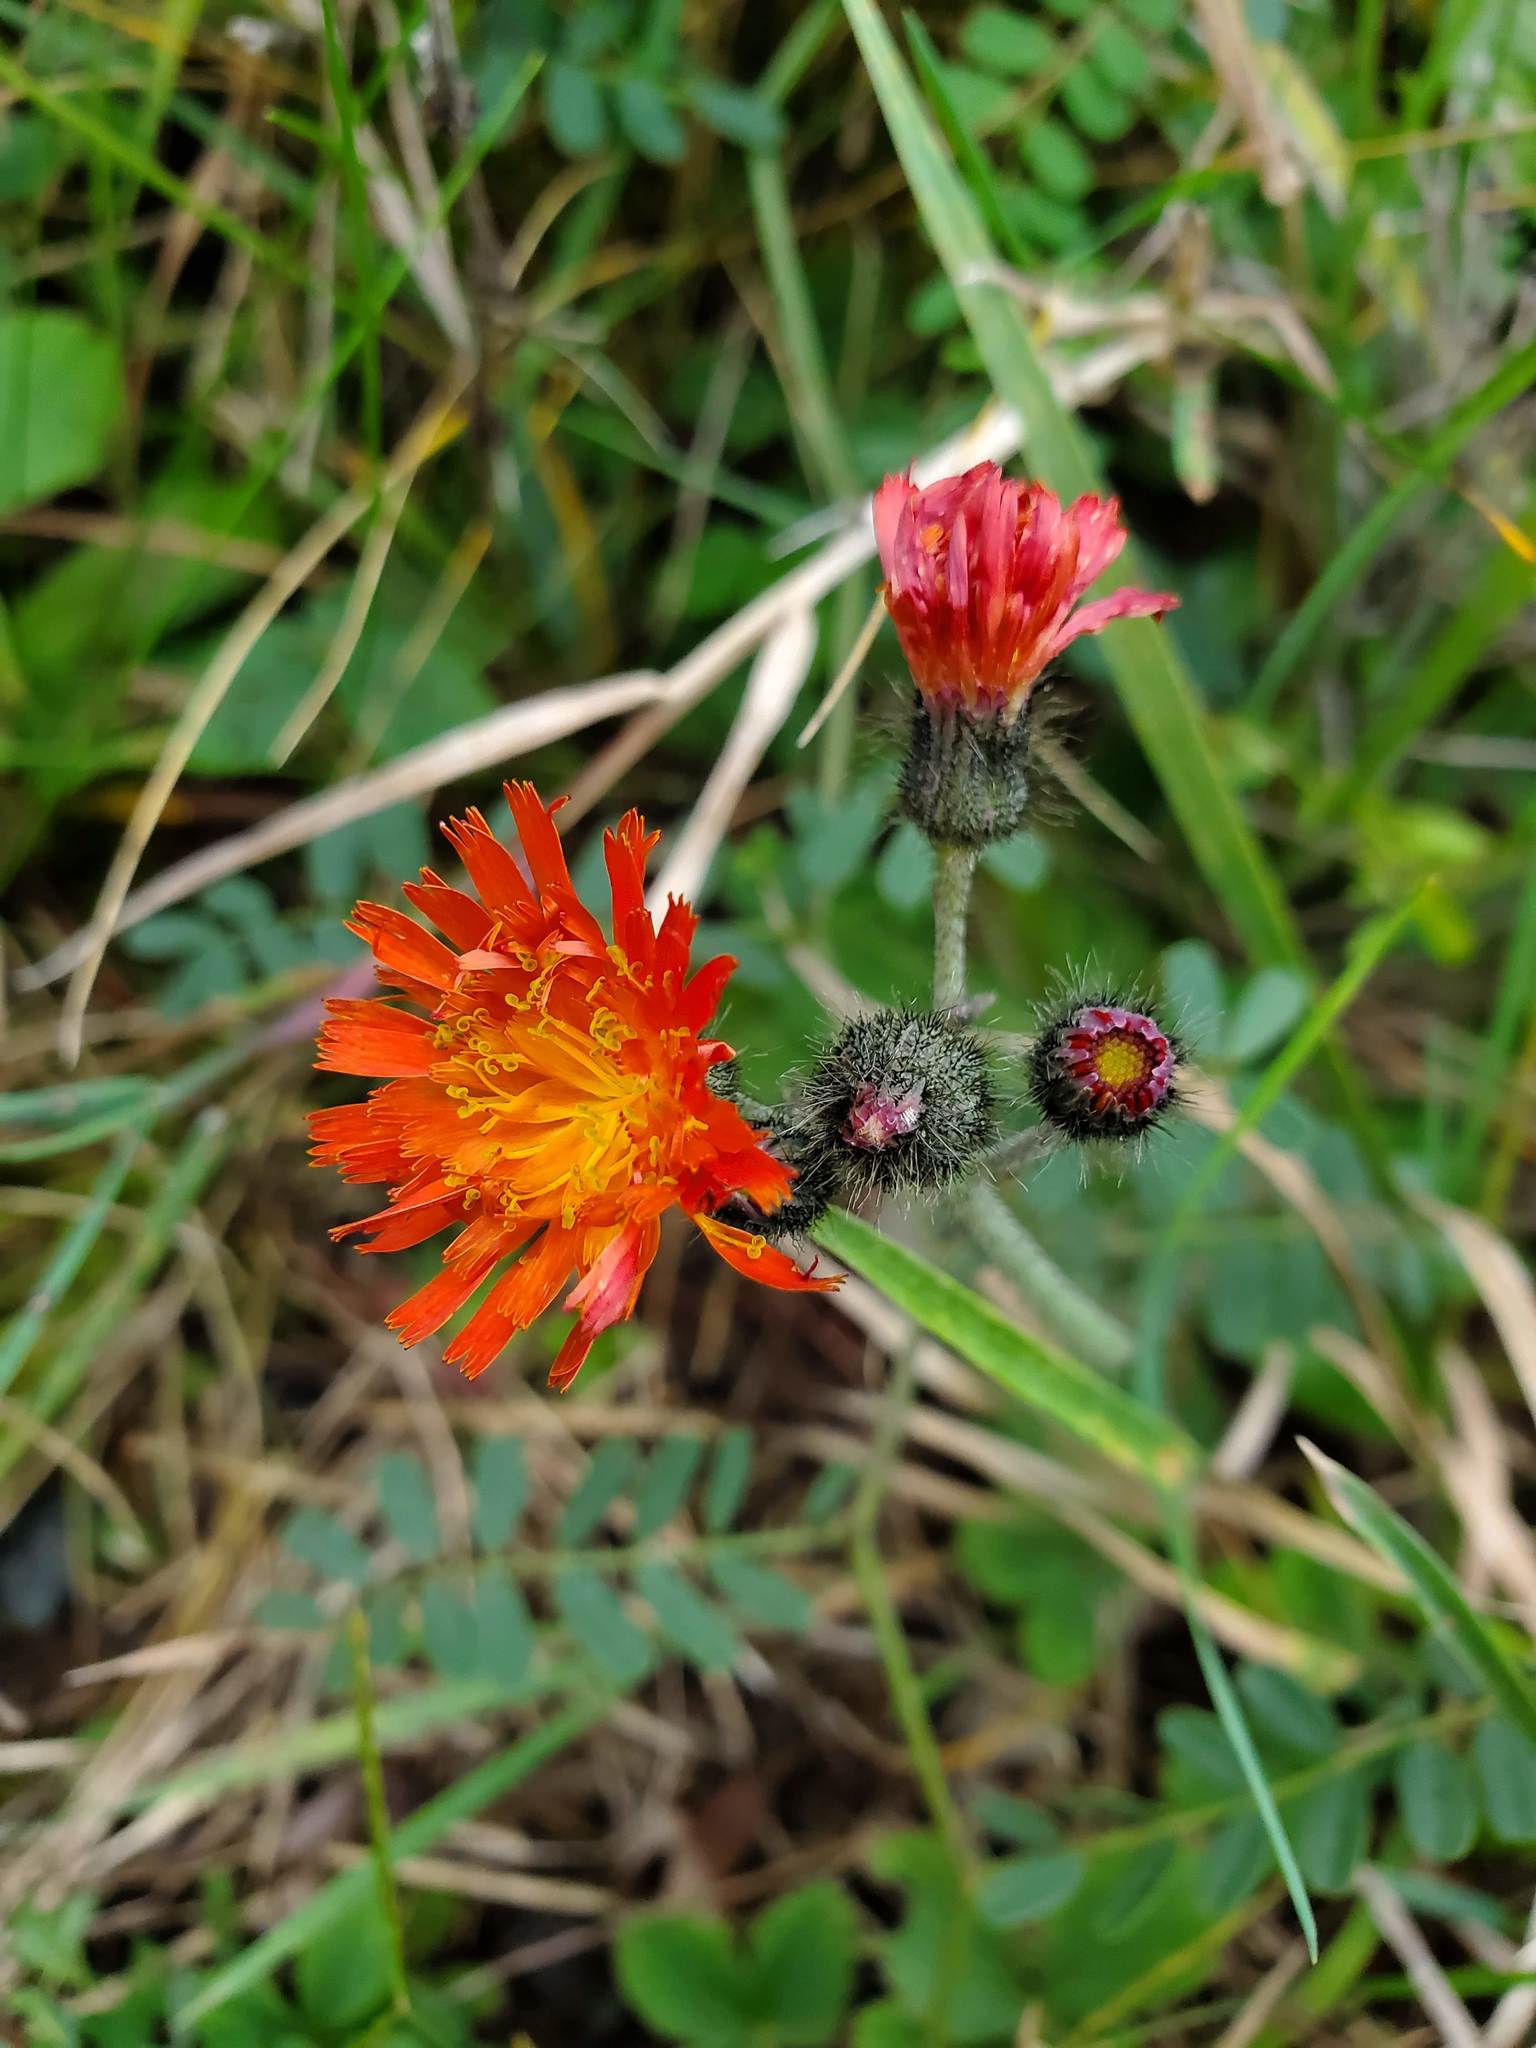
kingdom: Plantae
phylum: Tracheophyta
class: Magnoliopsida
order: Asterales
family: Asteraceae
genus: Pilosella
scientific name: Pilosella aurantiaca
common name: Fox-and-cubs
